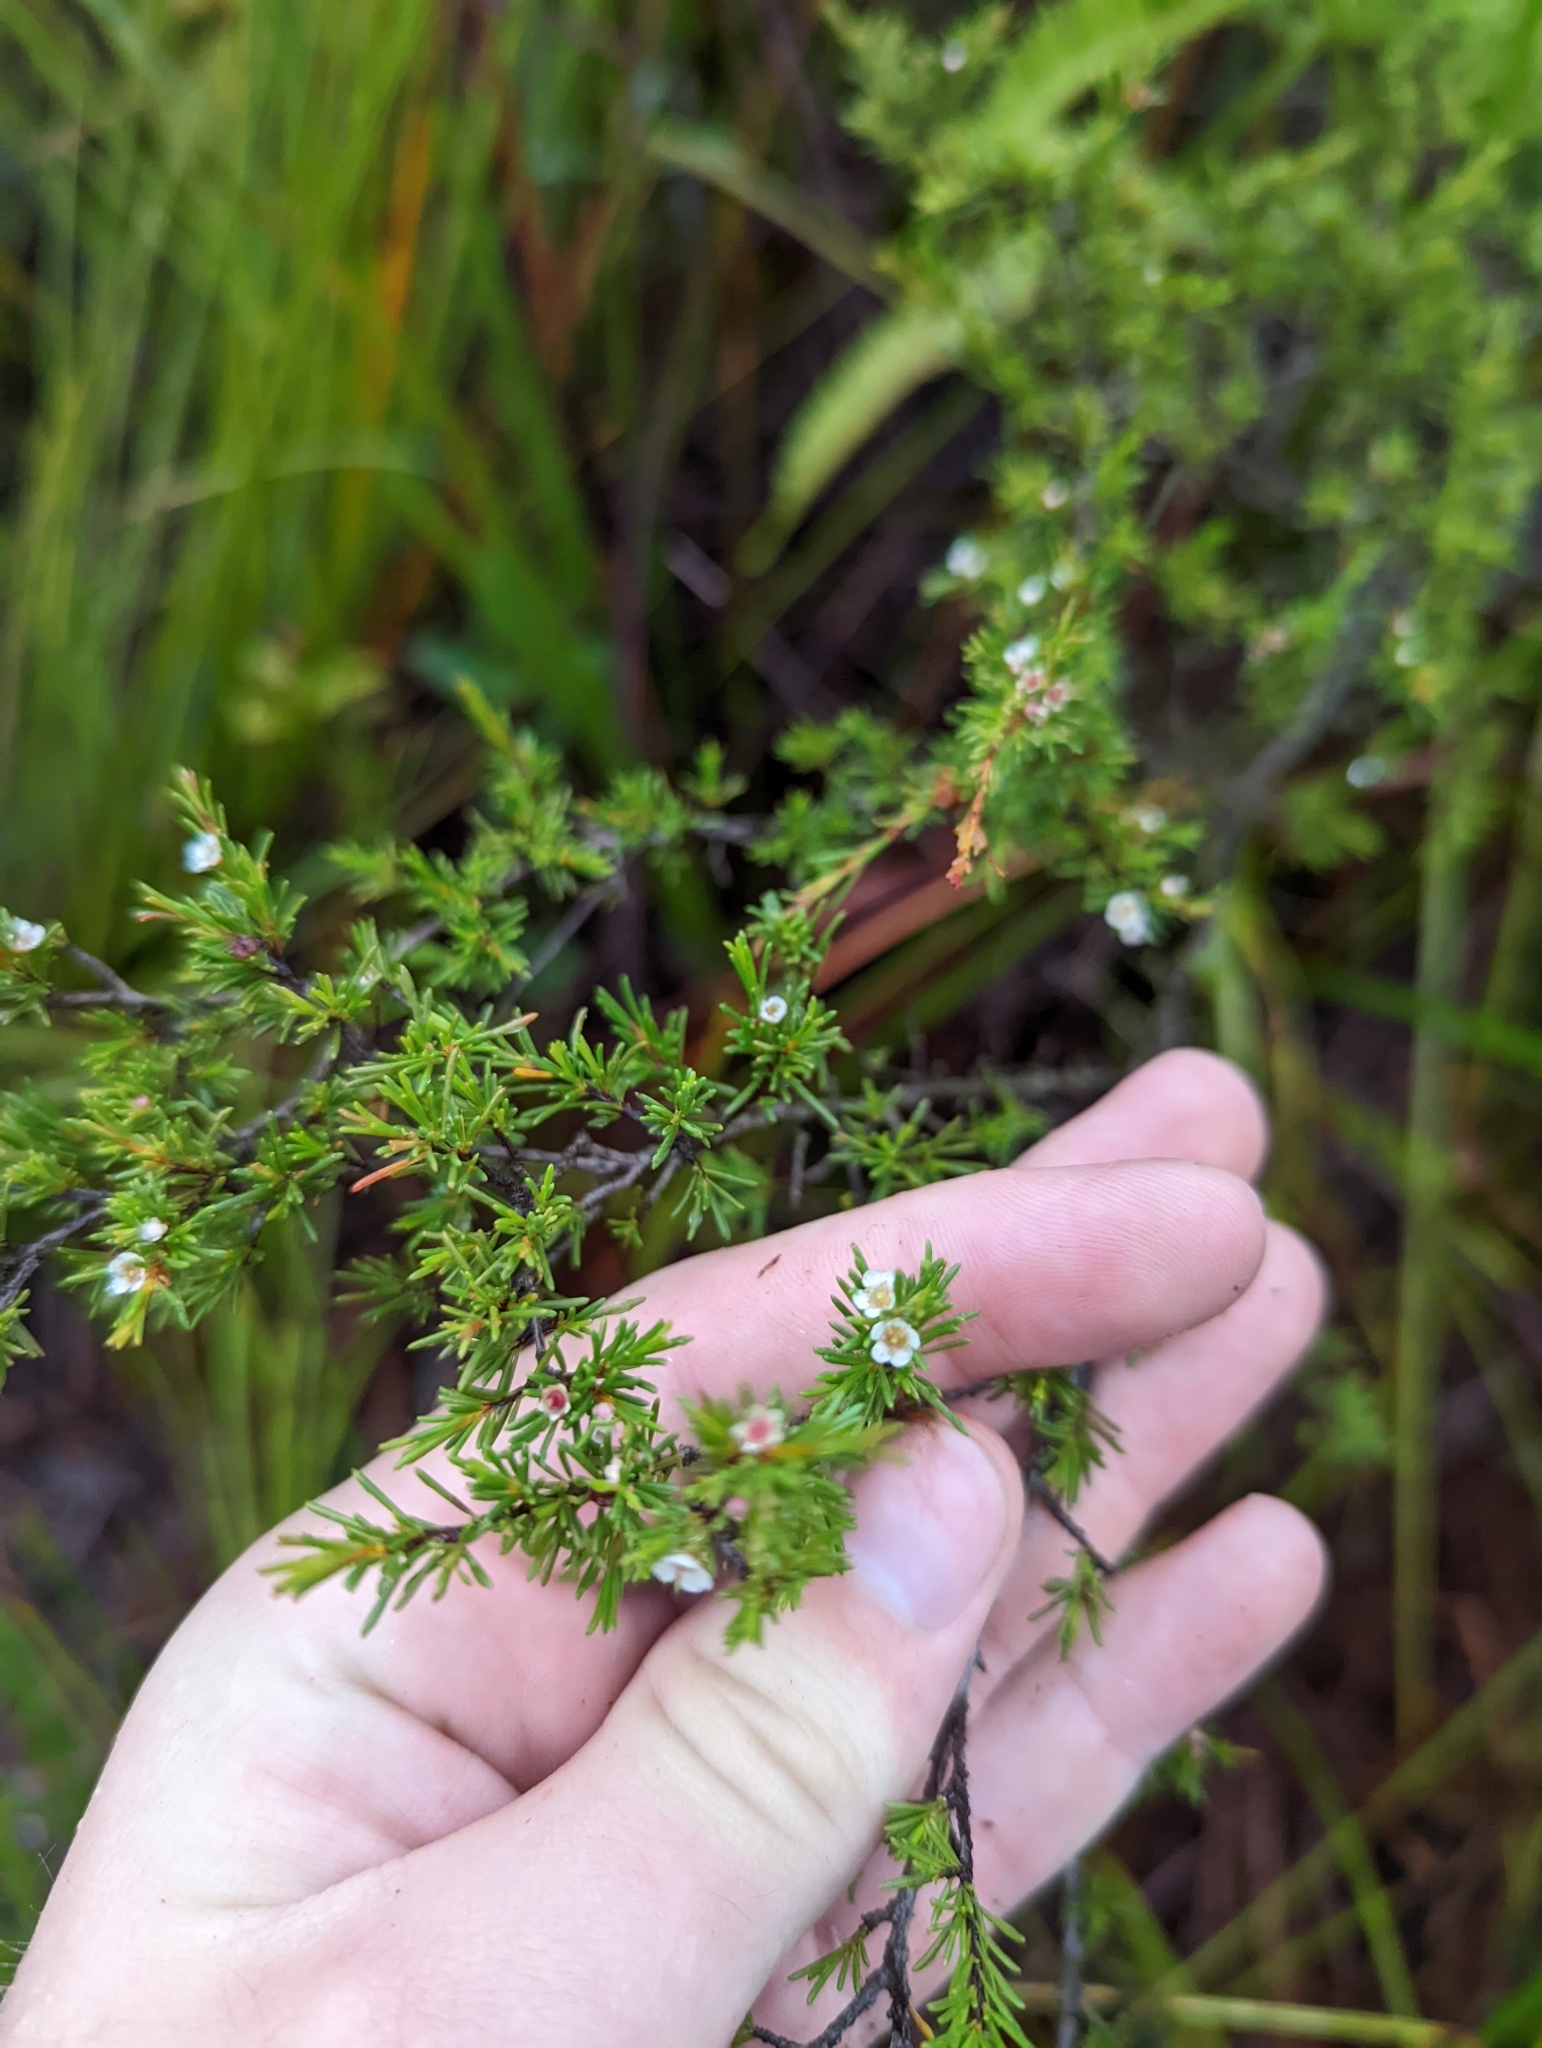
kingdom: Plantae
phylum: Tracheophyta
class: Magnoliopsida
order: Myrtales
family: Myrtaceae
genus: Baeckea
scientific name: Baeckea frutescens
